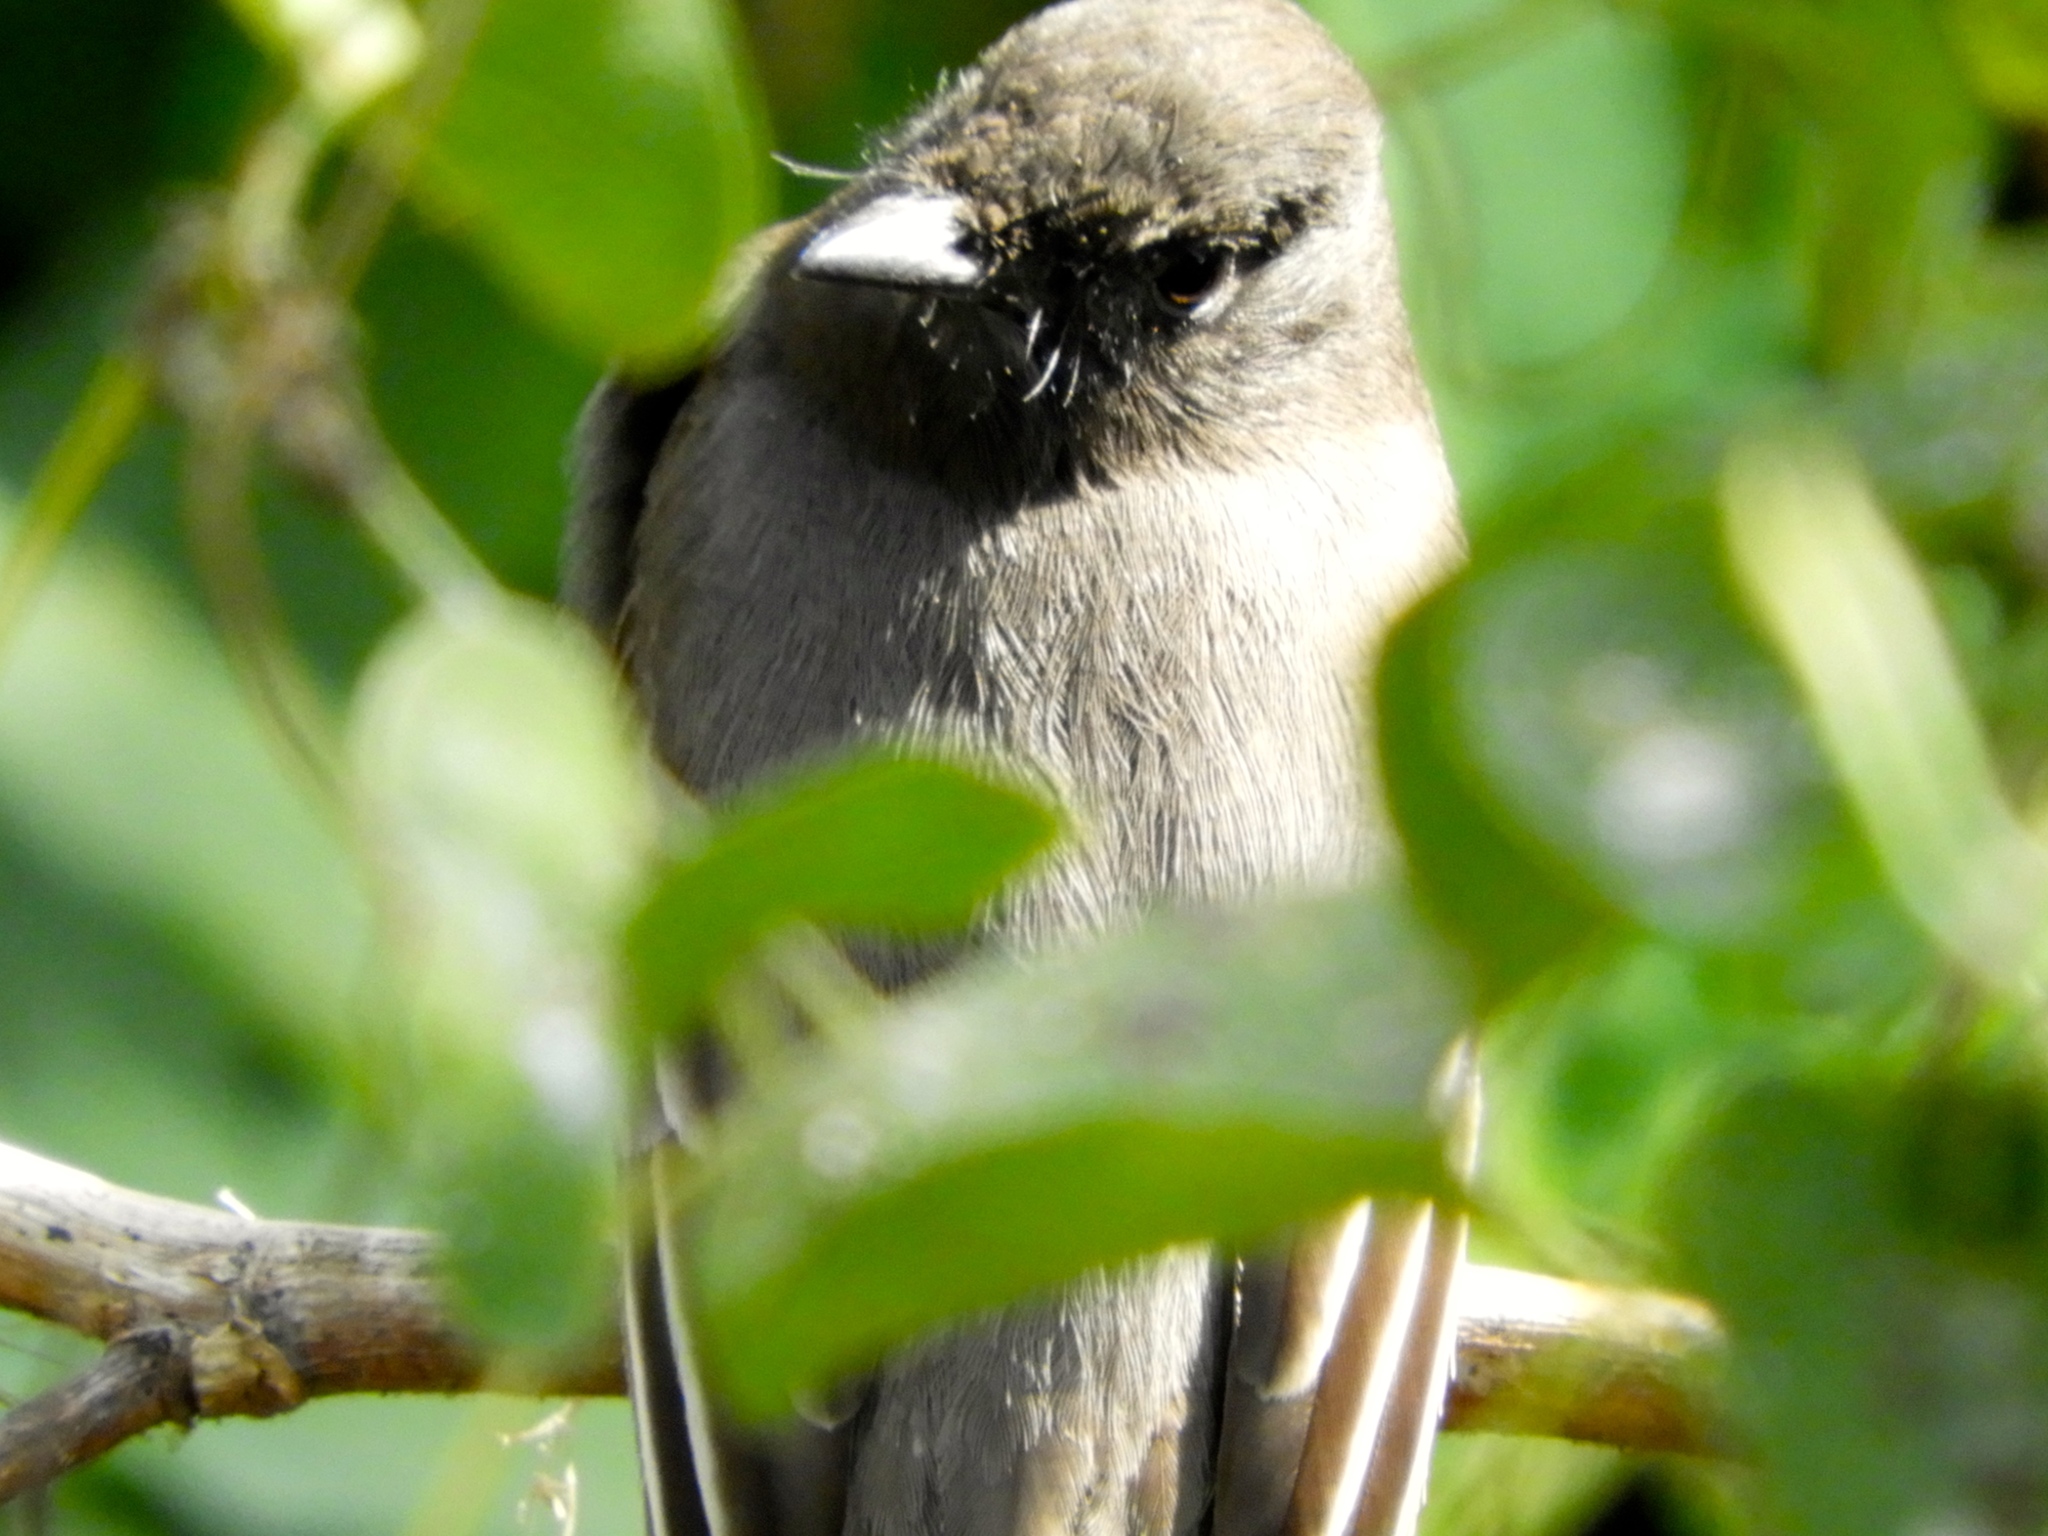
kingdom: Animalia
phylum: Chordata
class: Aves
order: Passeriformes
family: Tyrannidae
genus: Sayornis
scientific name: Sayornis nigricans
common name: Black phoebe
